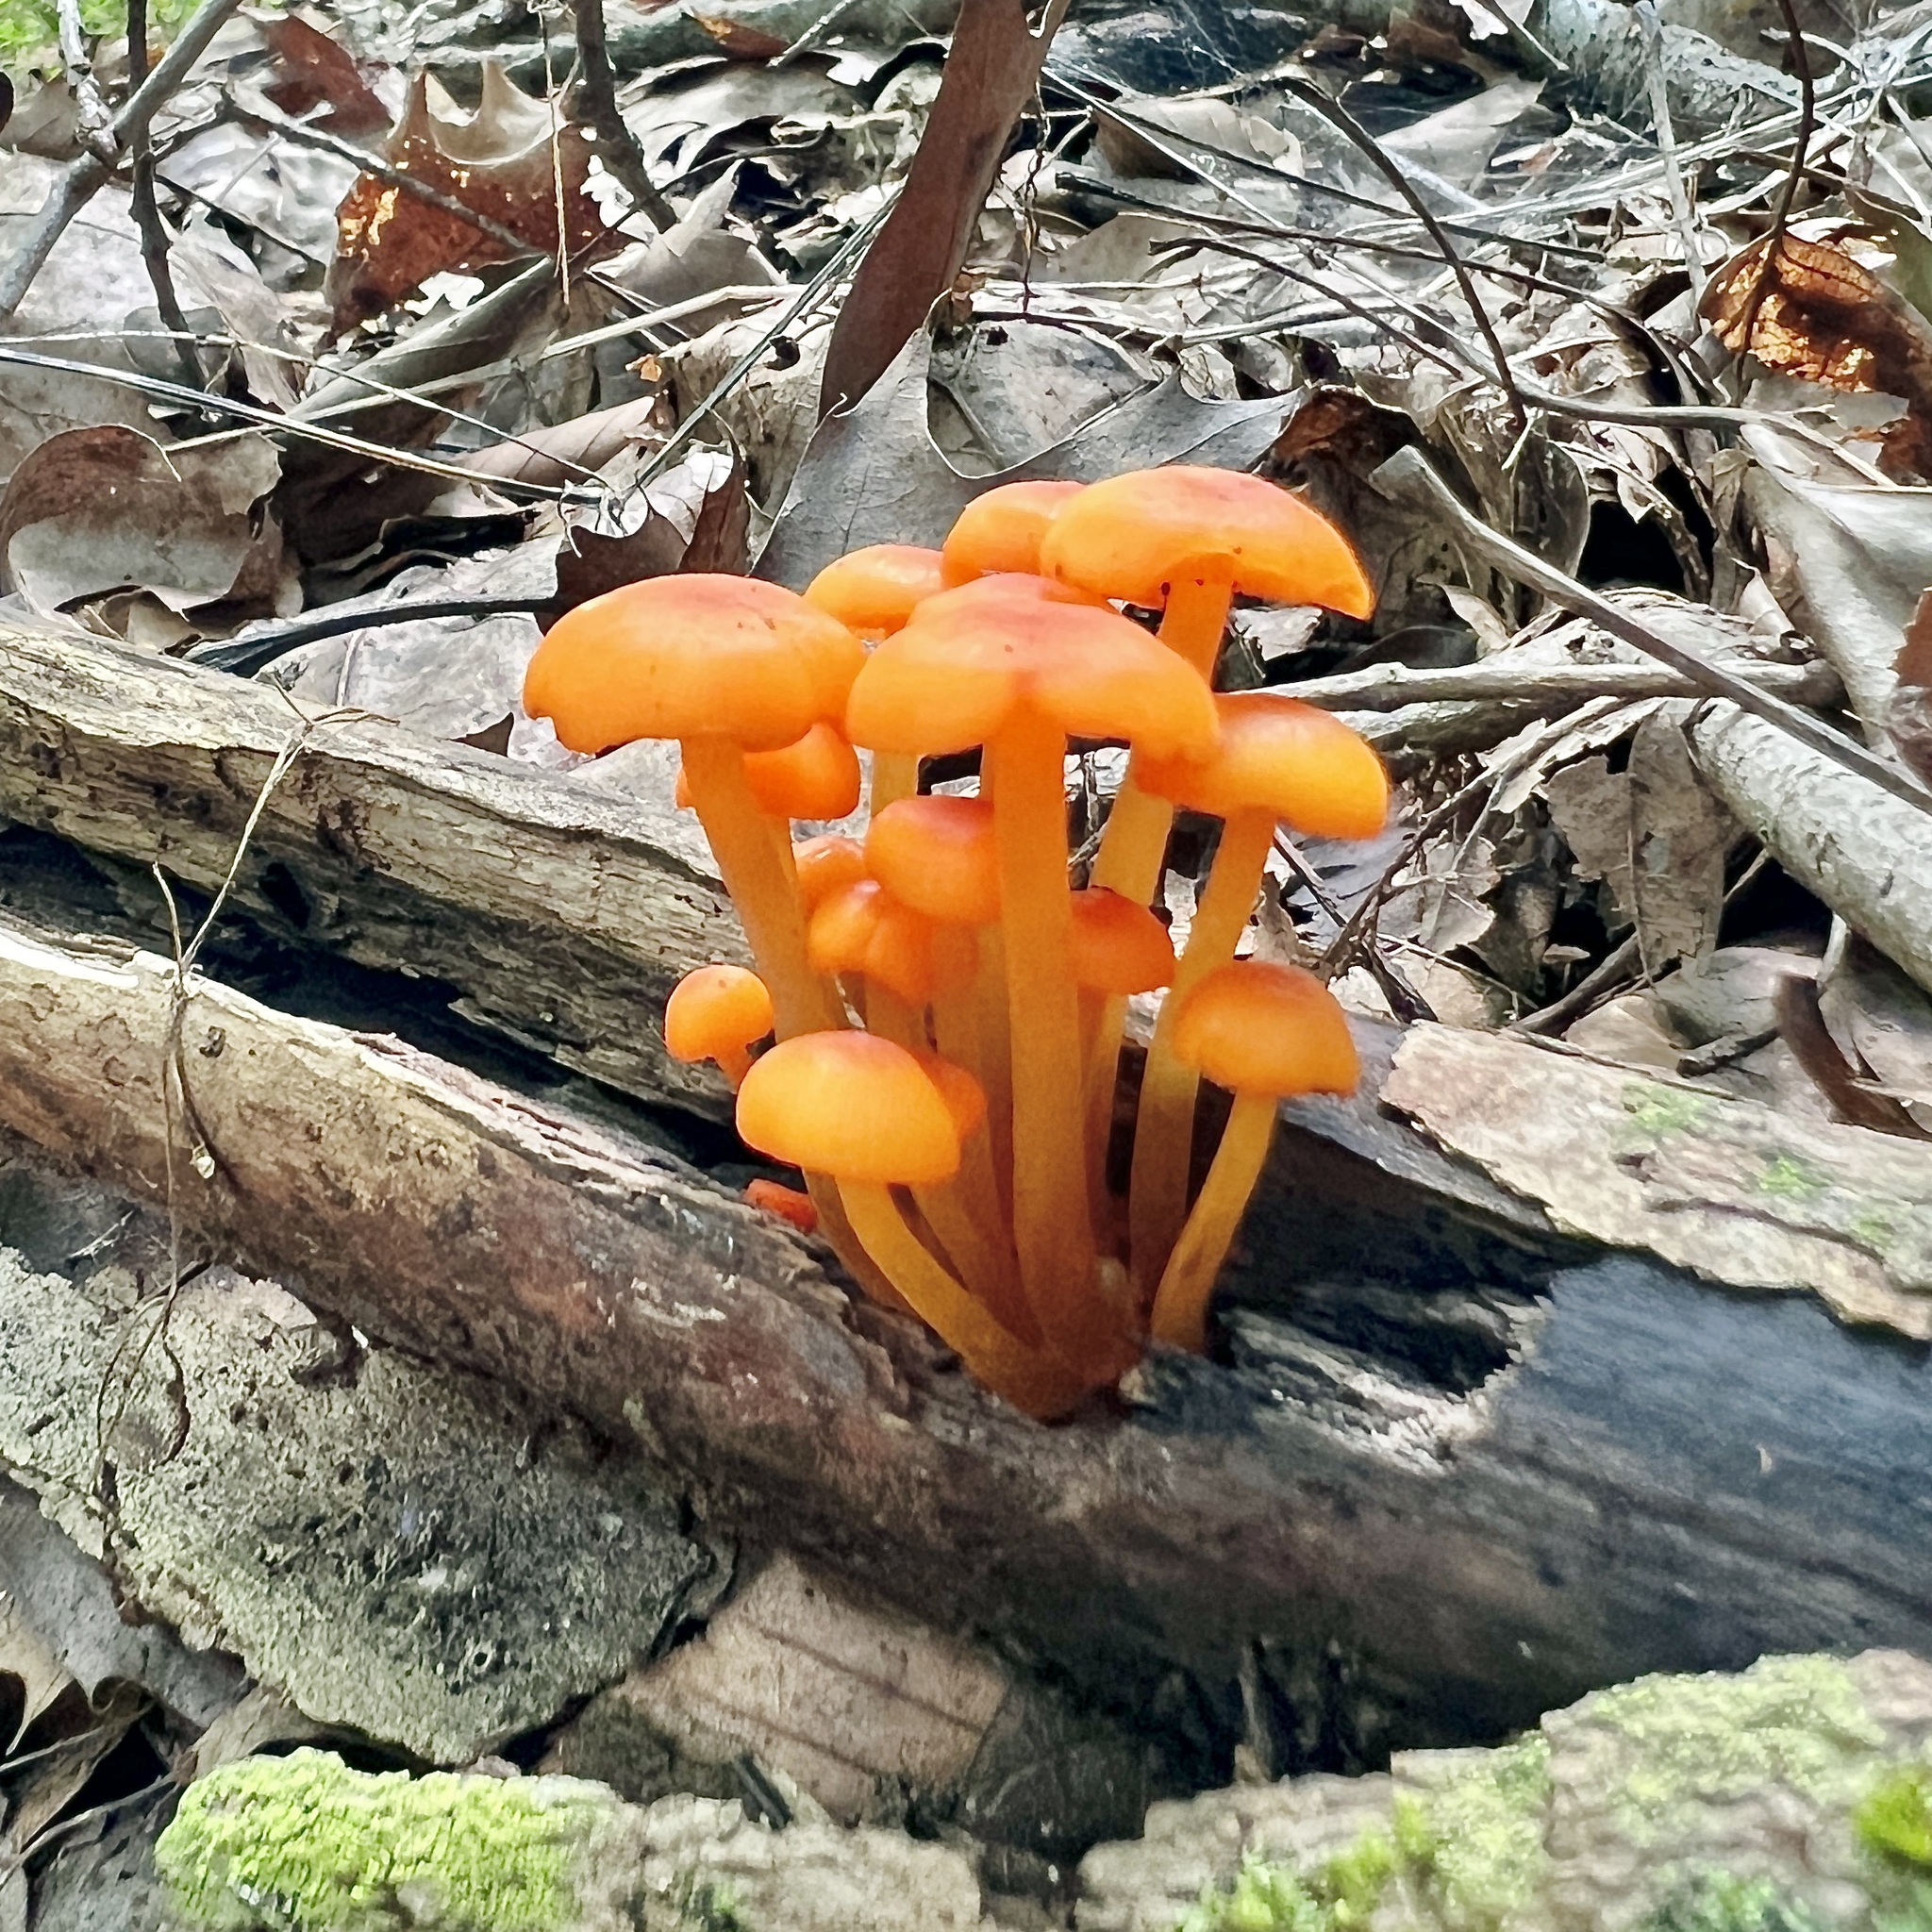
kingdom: Fungi
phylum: Basidiomycota
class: Agaricomycetes
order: Agaricales
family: Mycenaceae
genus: Mycena
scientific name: Mycena leaiana
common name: Orange mycena
